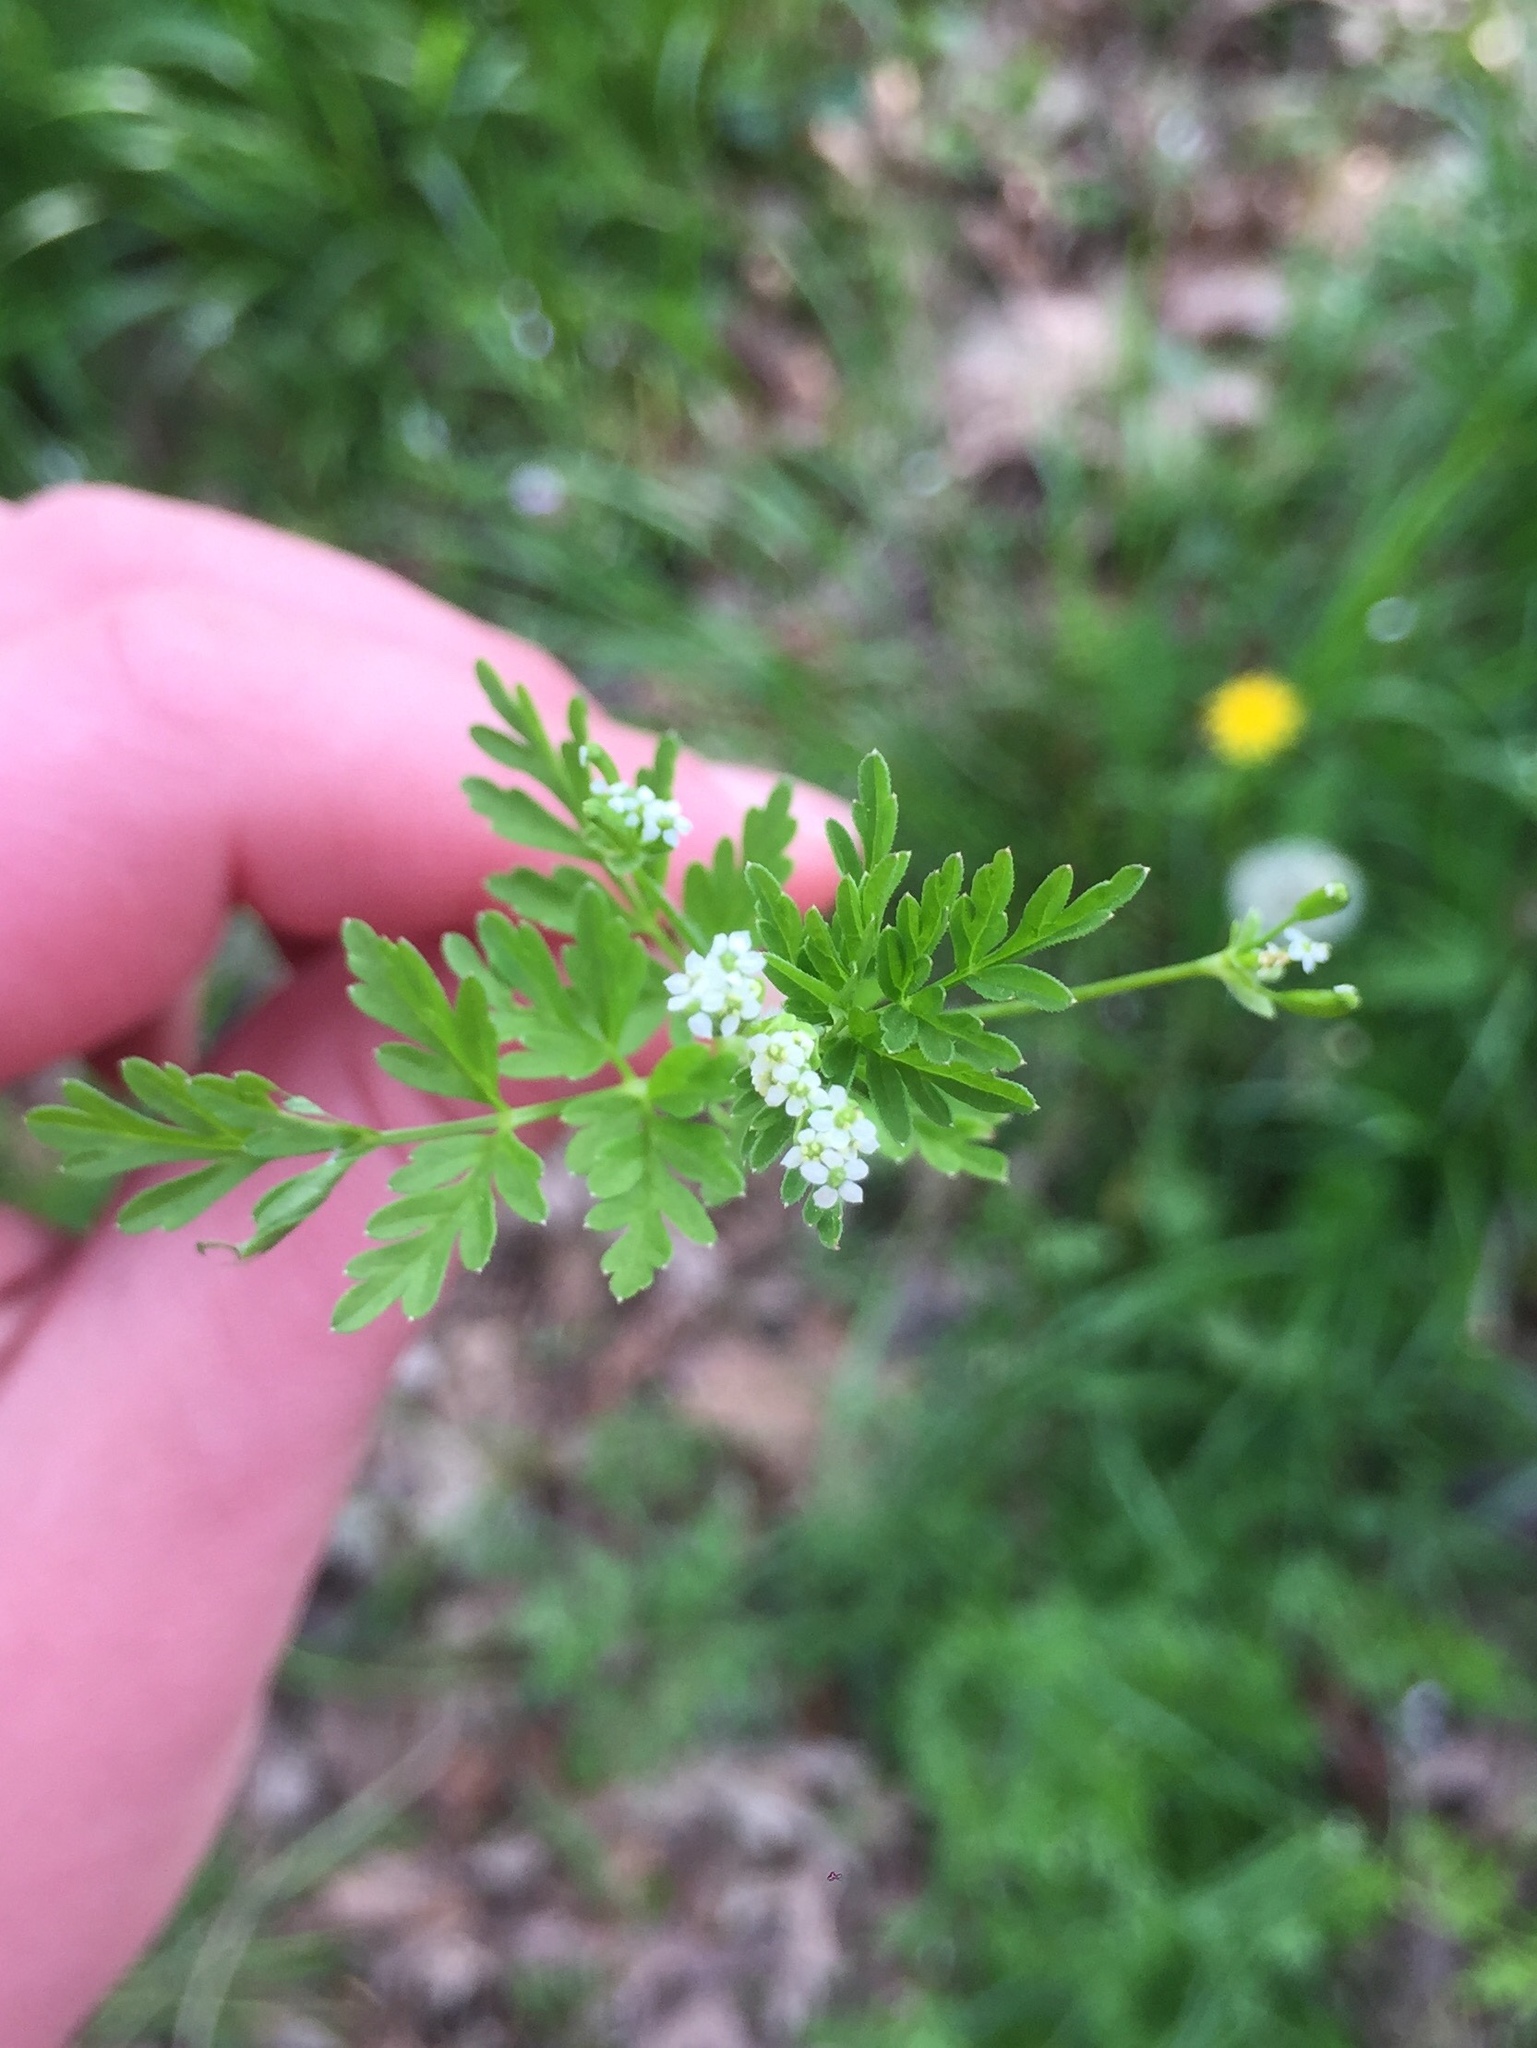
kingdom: Plantae
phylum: Tracheophyta
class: Magnoliopsida
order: Apiales
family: Apiaceae
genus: Chaerophyllum
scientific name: Chaerophyllum tainturieri
